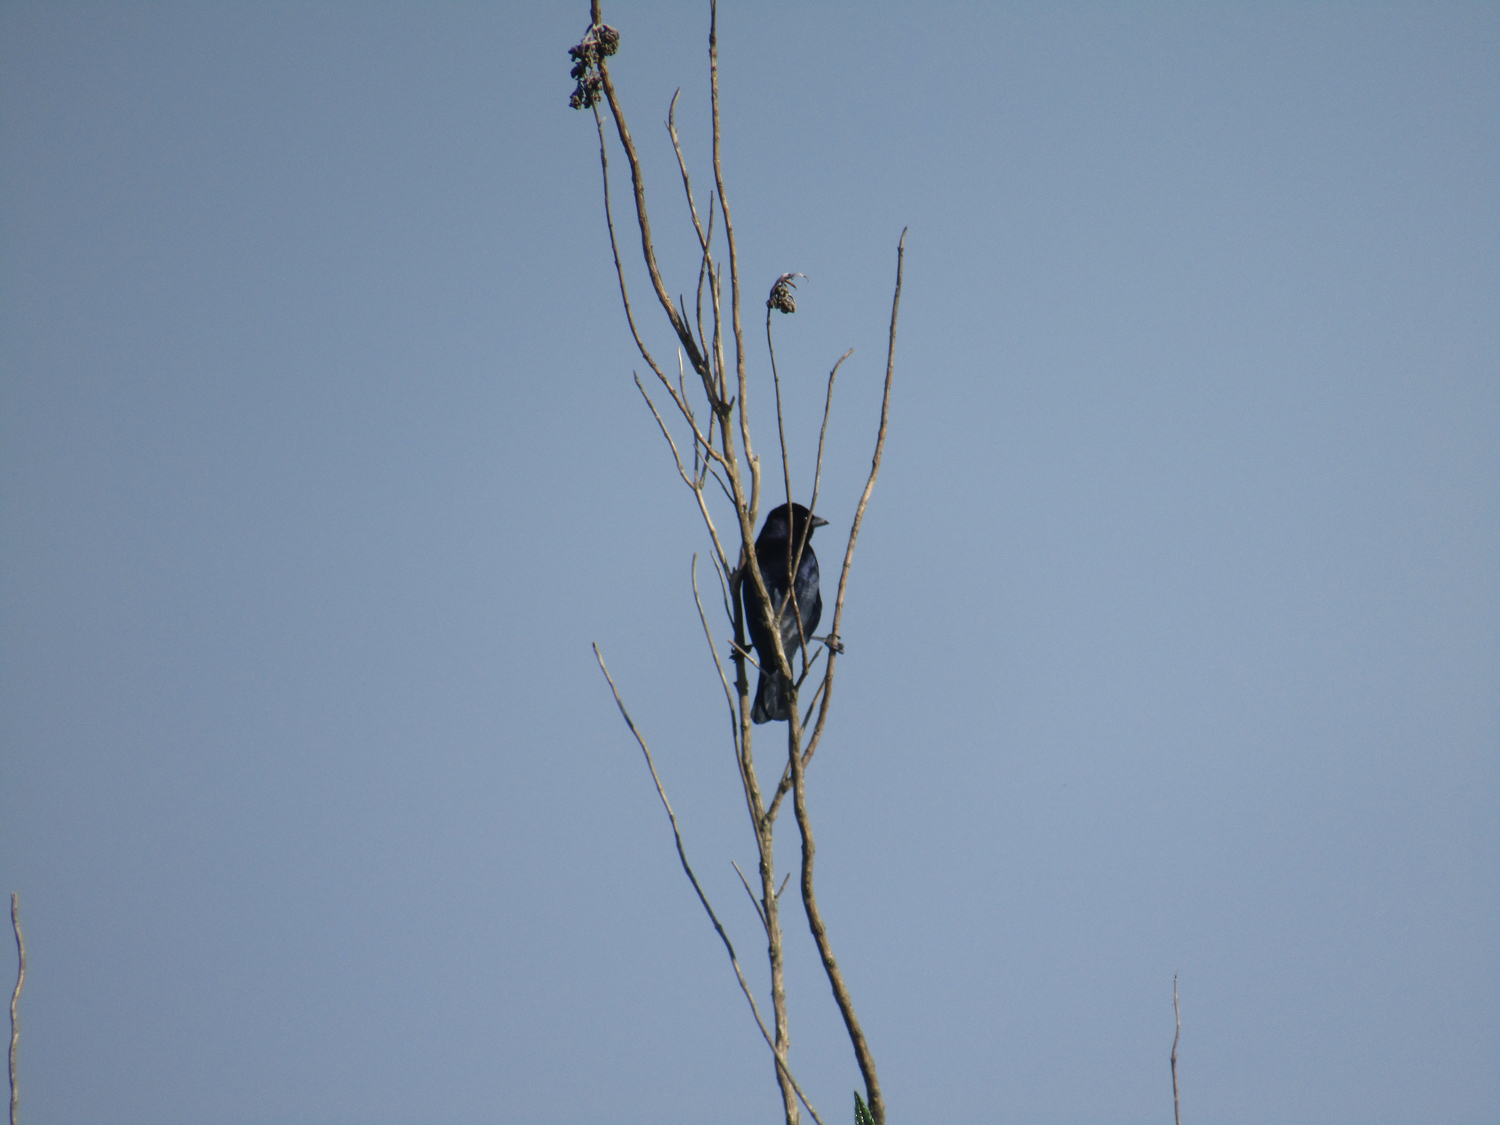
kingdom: Animalia
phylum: Chordata
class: Aves
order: Passeriformes
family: Icteridae
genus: Molothrus
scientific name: Molothrus bonariensis
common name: Shiny cowbird
